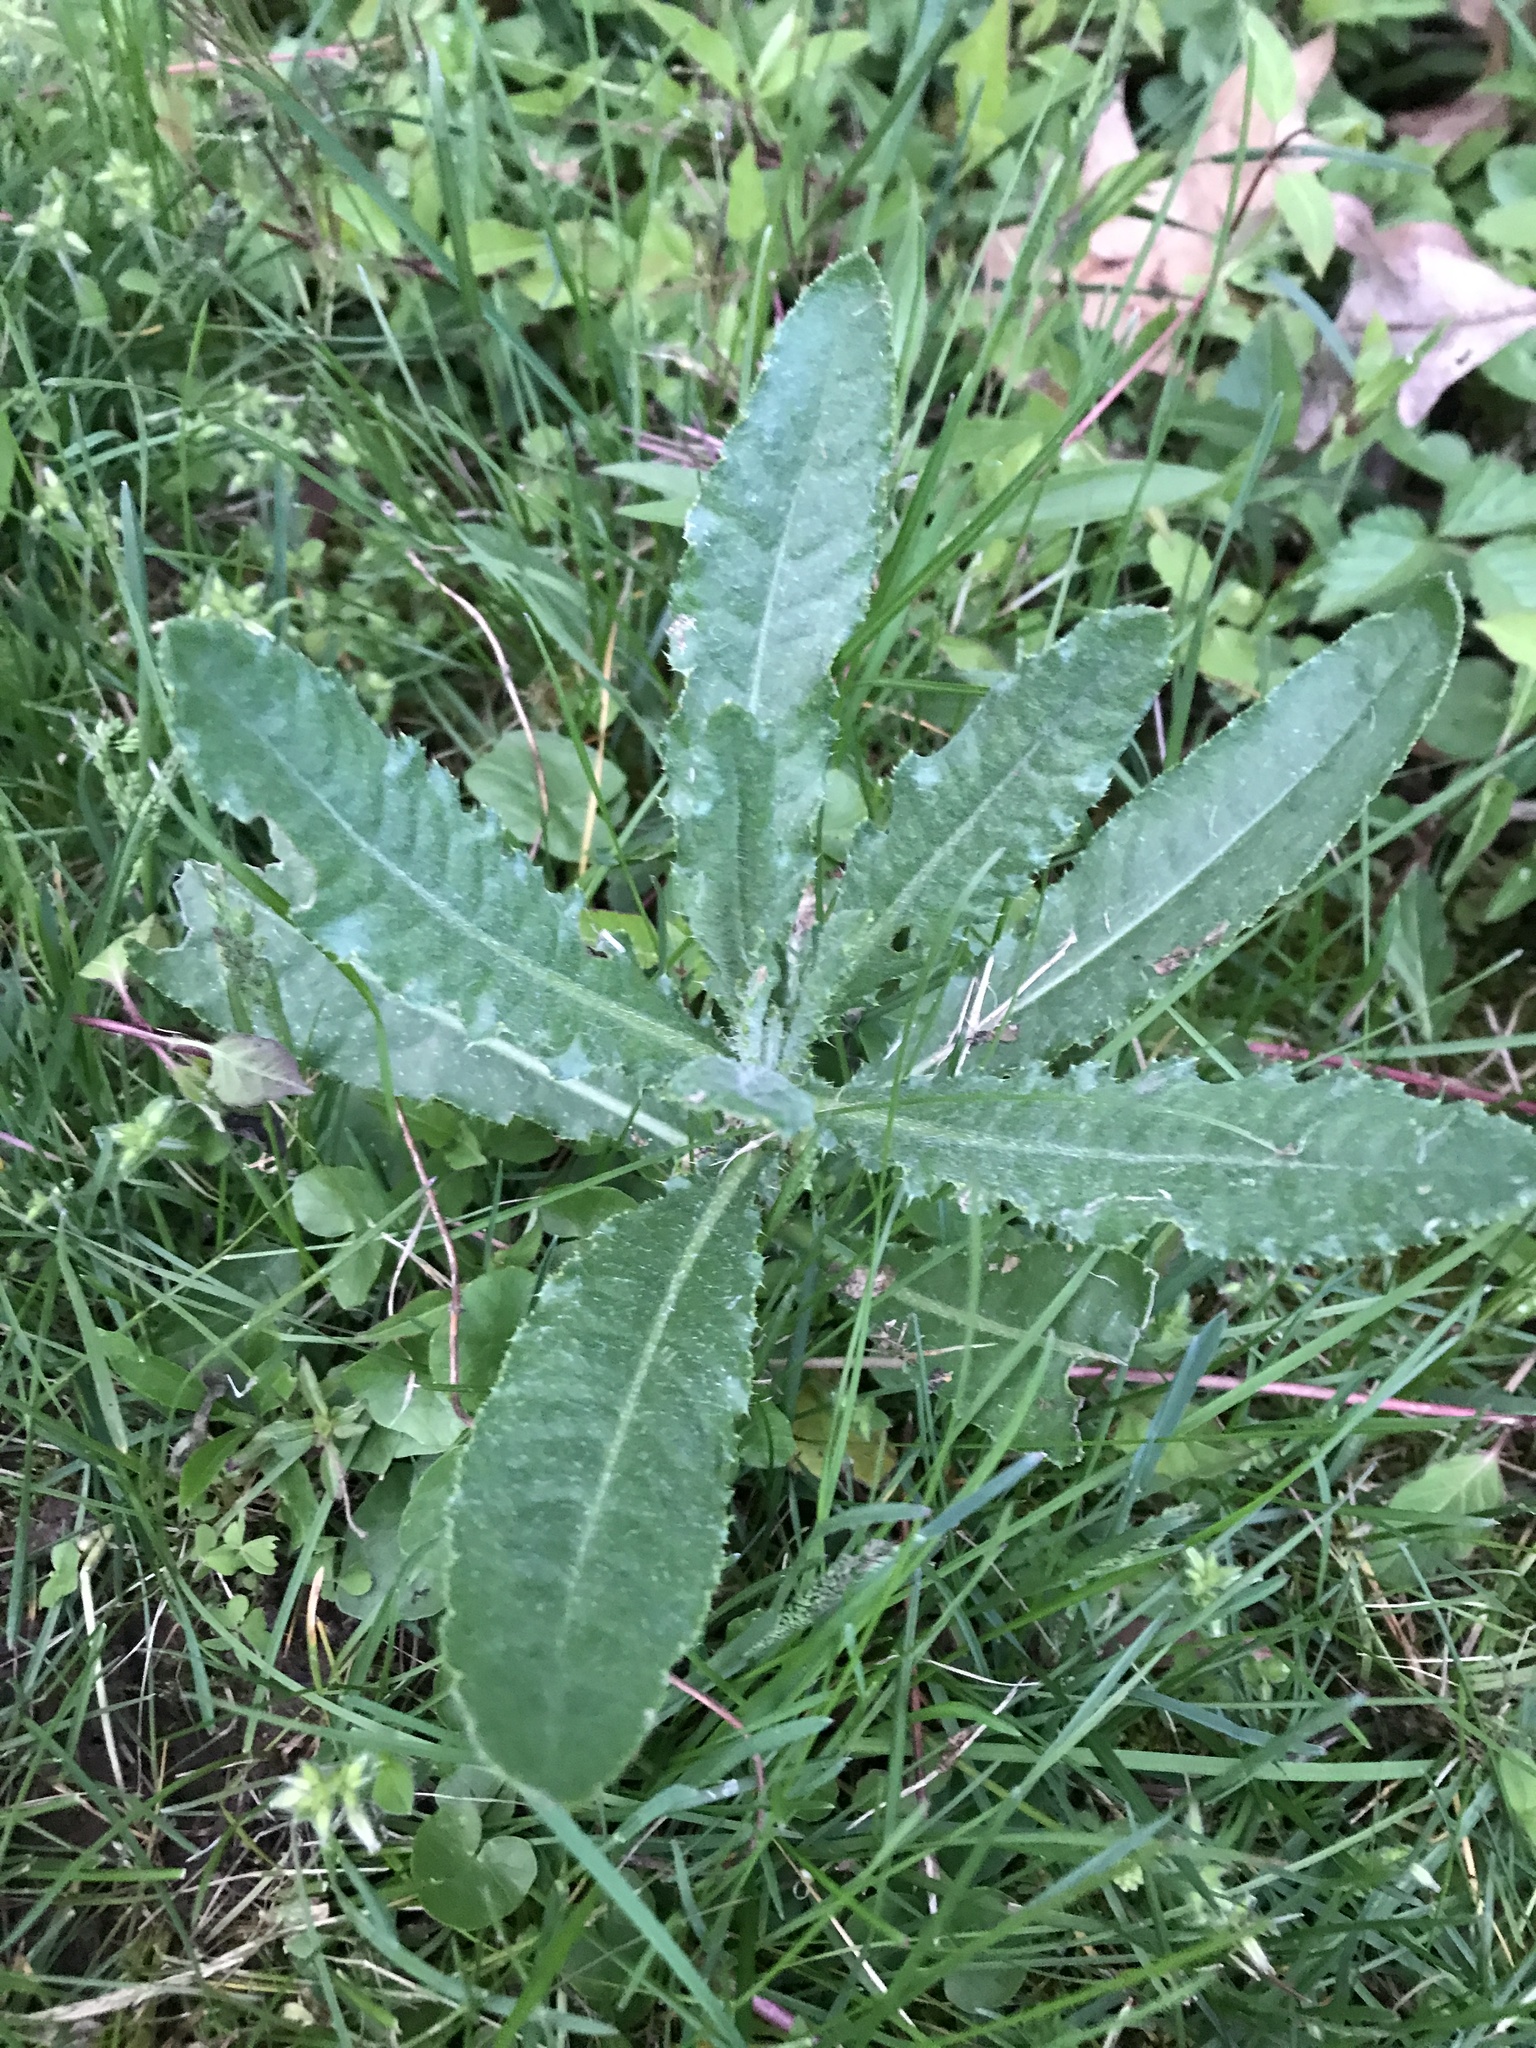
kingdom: Plantae
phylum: Tracheophyta
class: Magnoliopsida
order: Asterales
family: Asteraceae
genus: Cirsium
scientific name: Cirsium arvense
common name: Creeping thistle
